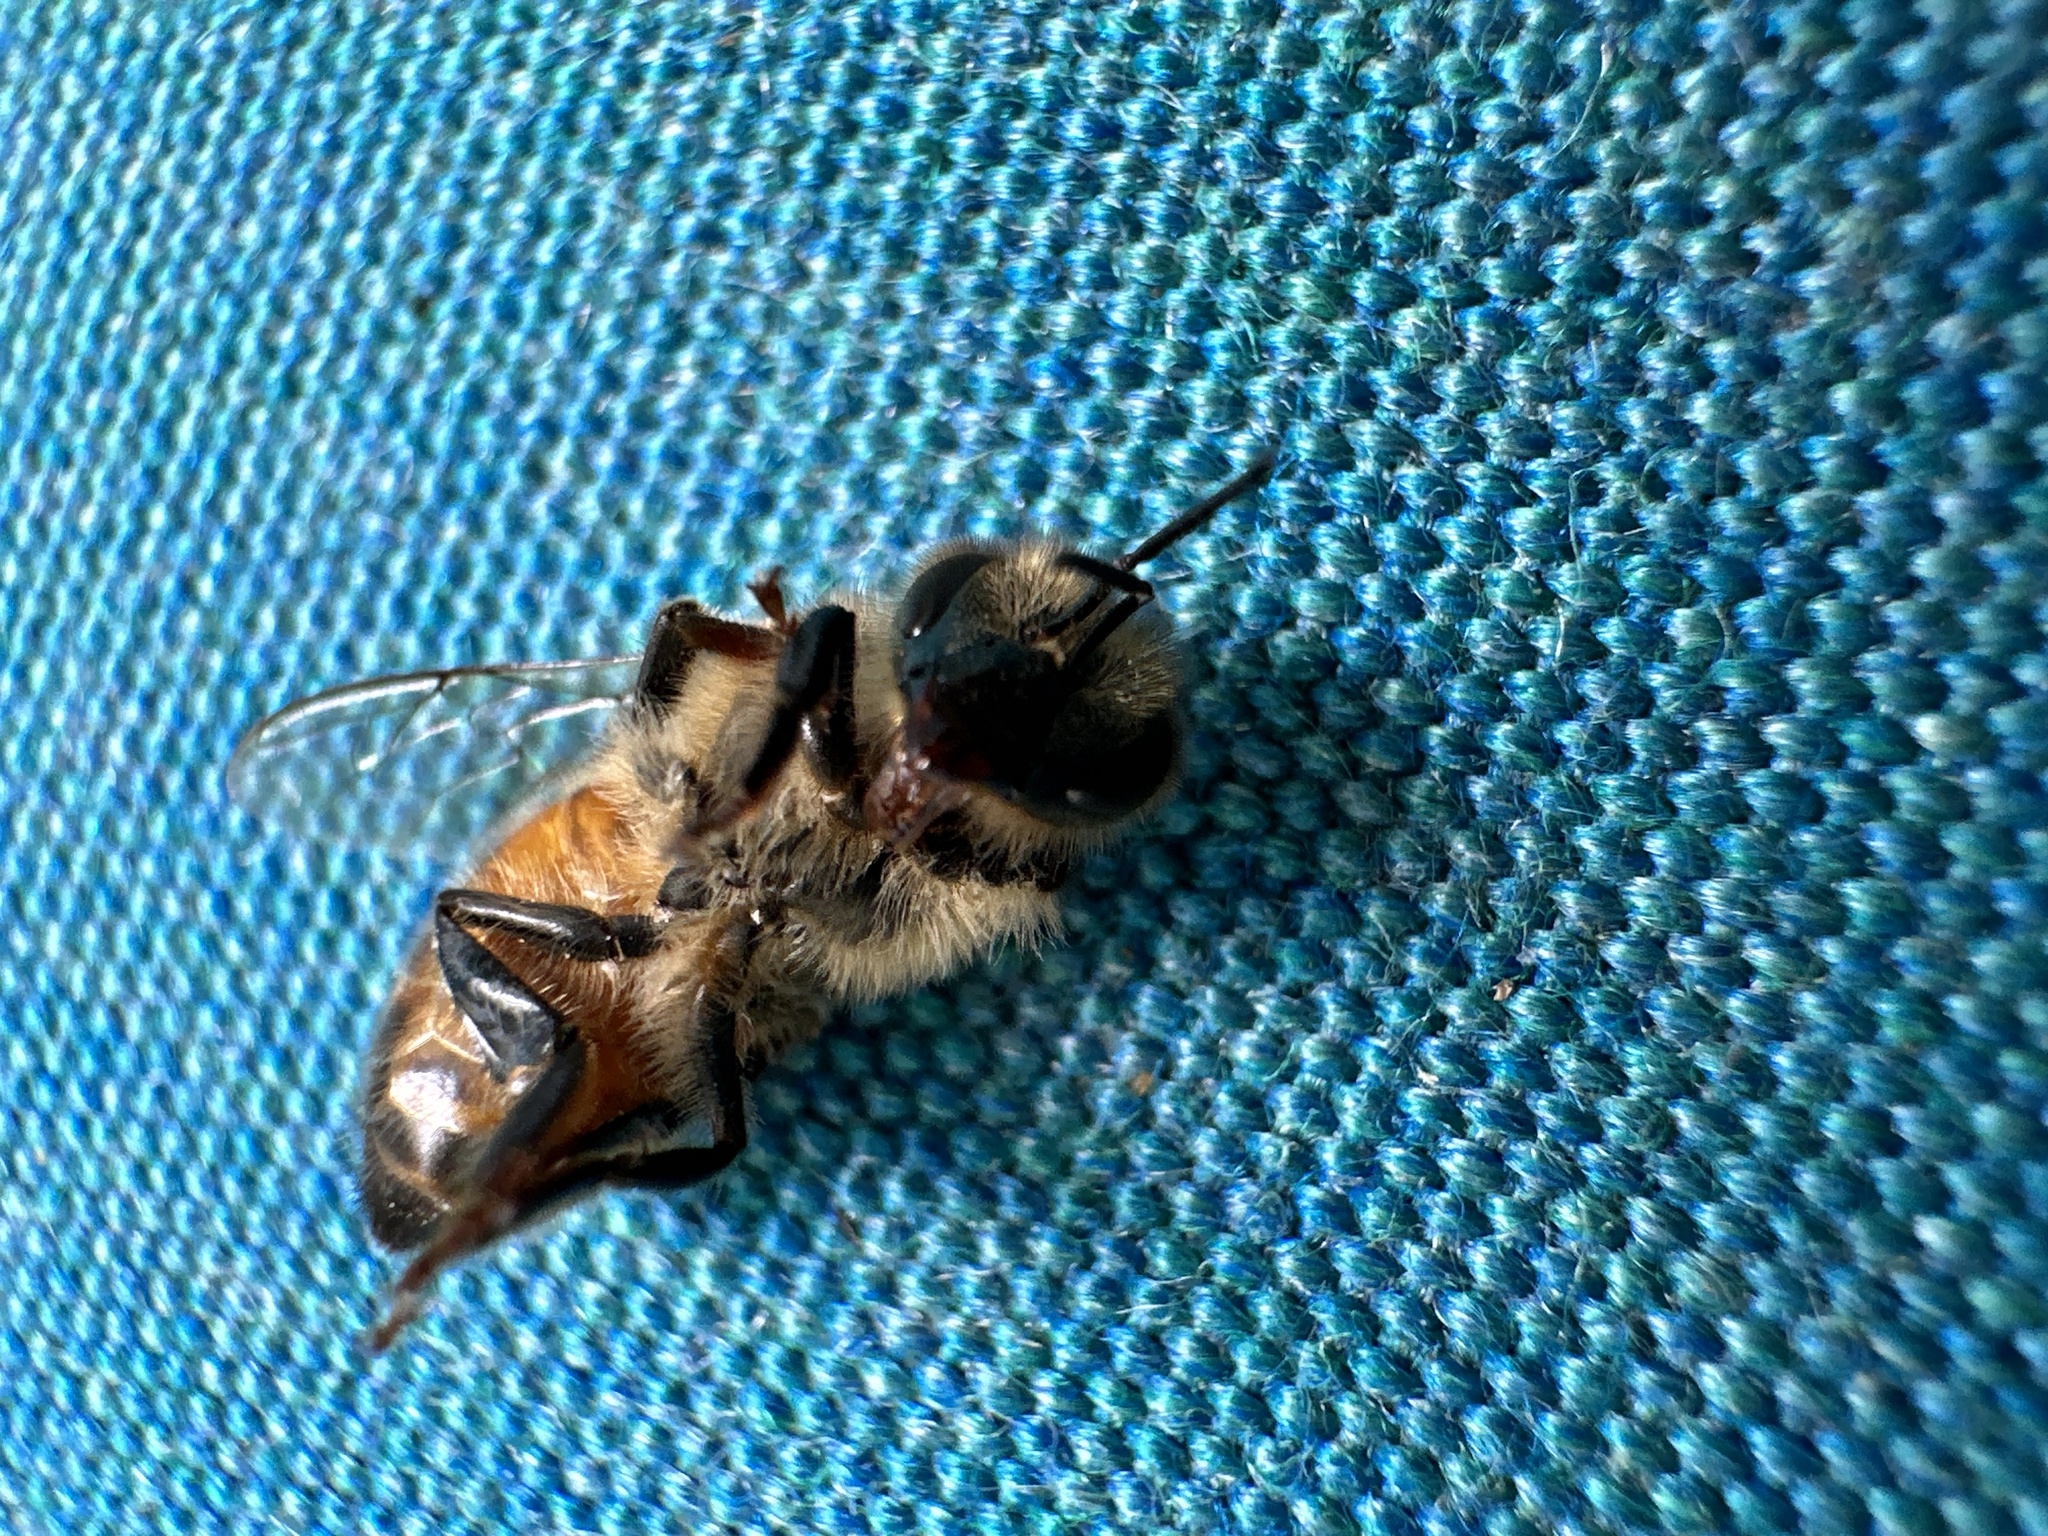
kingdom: Animalia
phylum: Arthropoda
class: Insecta
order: Hymenoptera
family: Apidae
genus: Apis
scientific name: Apis mellifera
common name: Honey bee
